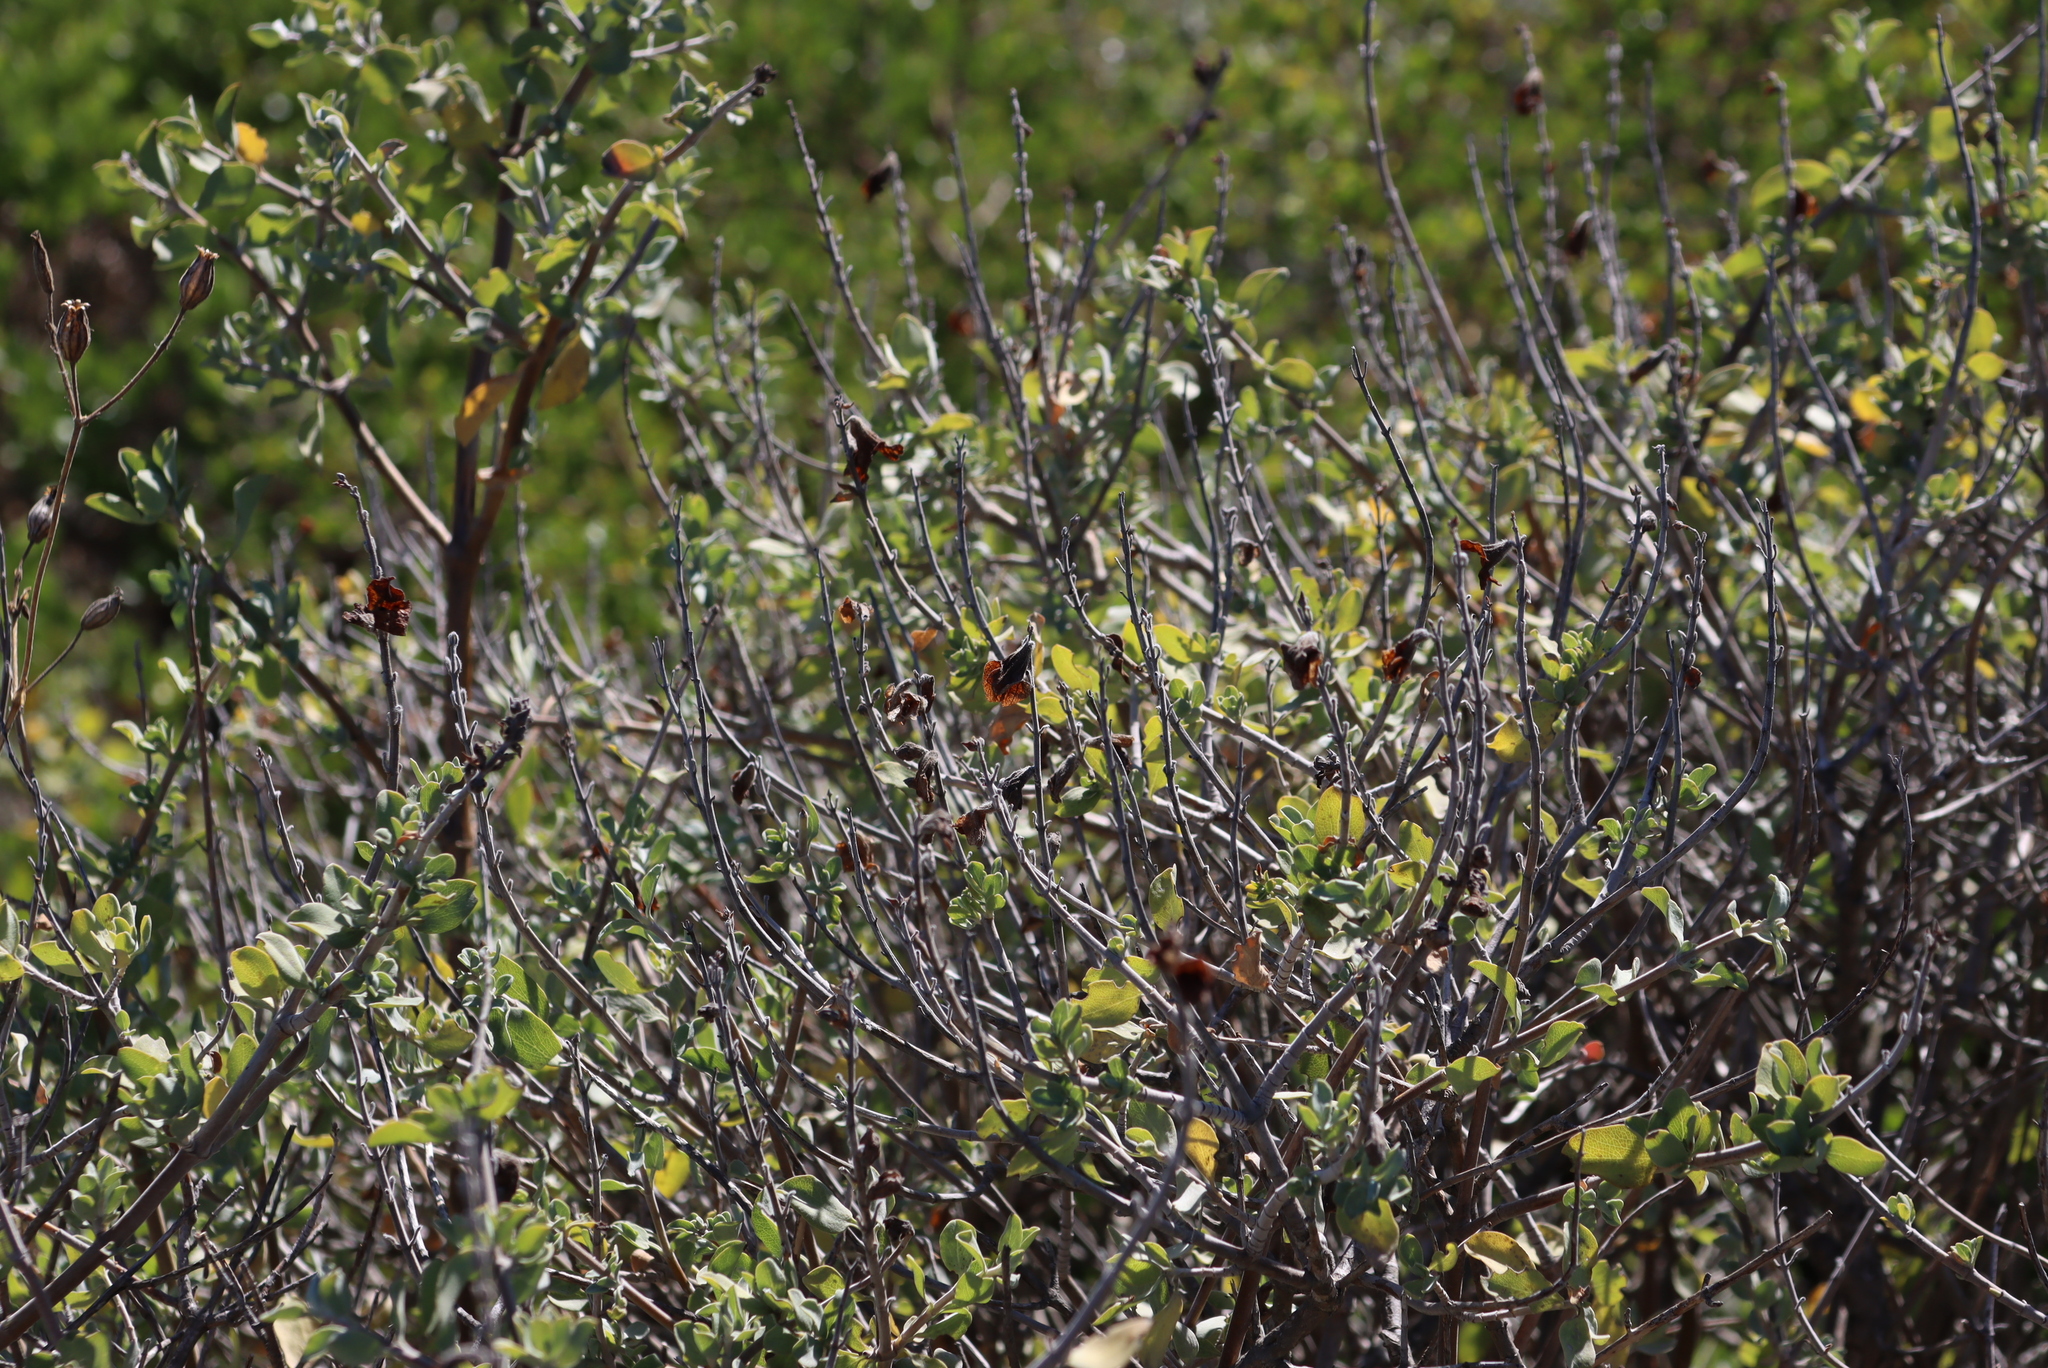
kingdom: Plantae
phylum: Tracheophyta
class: Magnoliopsida
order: Lamiales
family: Lamiaceae
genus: Salvia
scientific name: Salvia aurea
